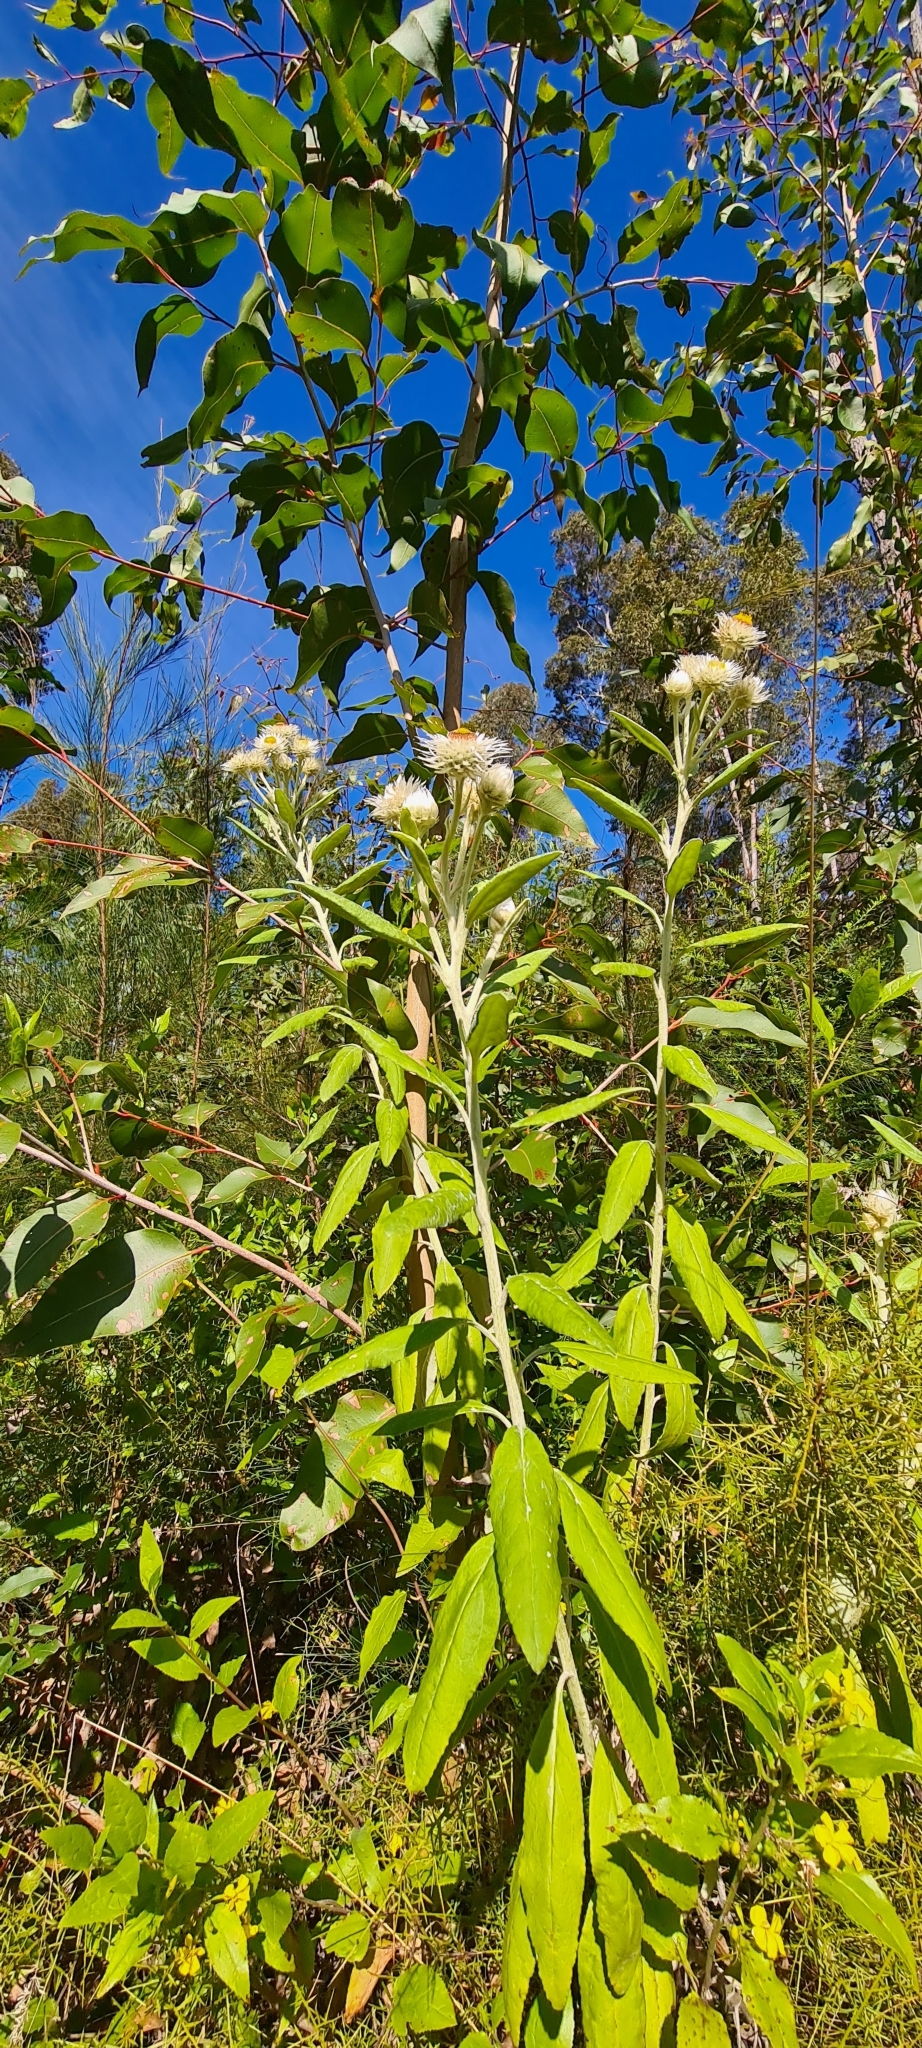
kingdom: Plantae
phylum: Tracheophyta
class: Magnoliopsida
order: Asterales
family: Asteraceae
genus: Leucozoma
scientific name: Leucozoma elatum
